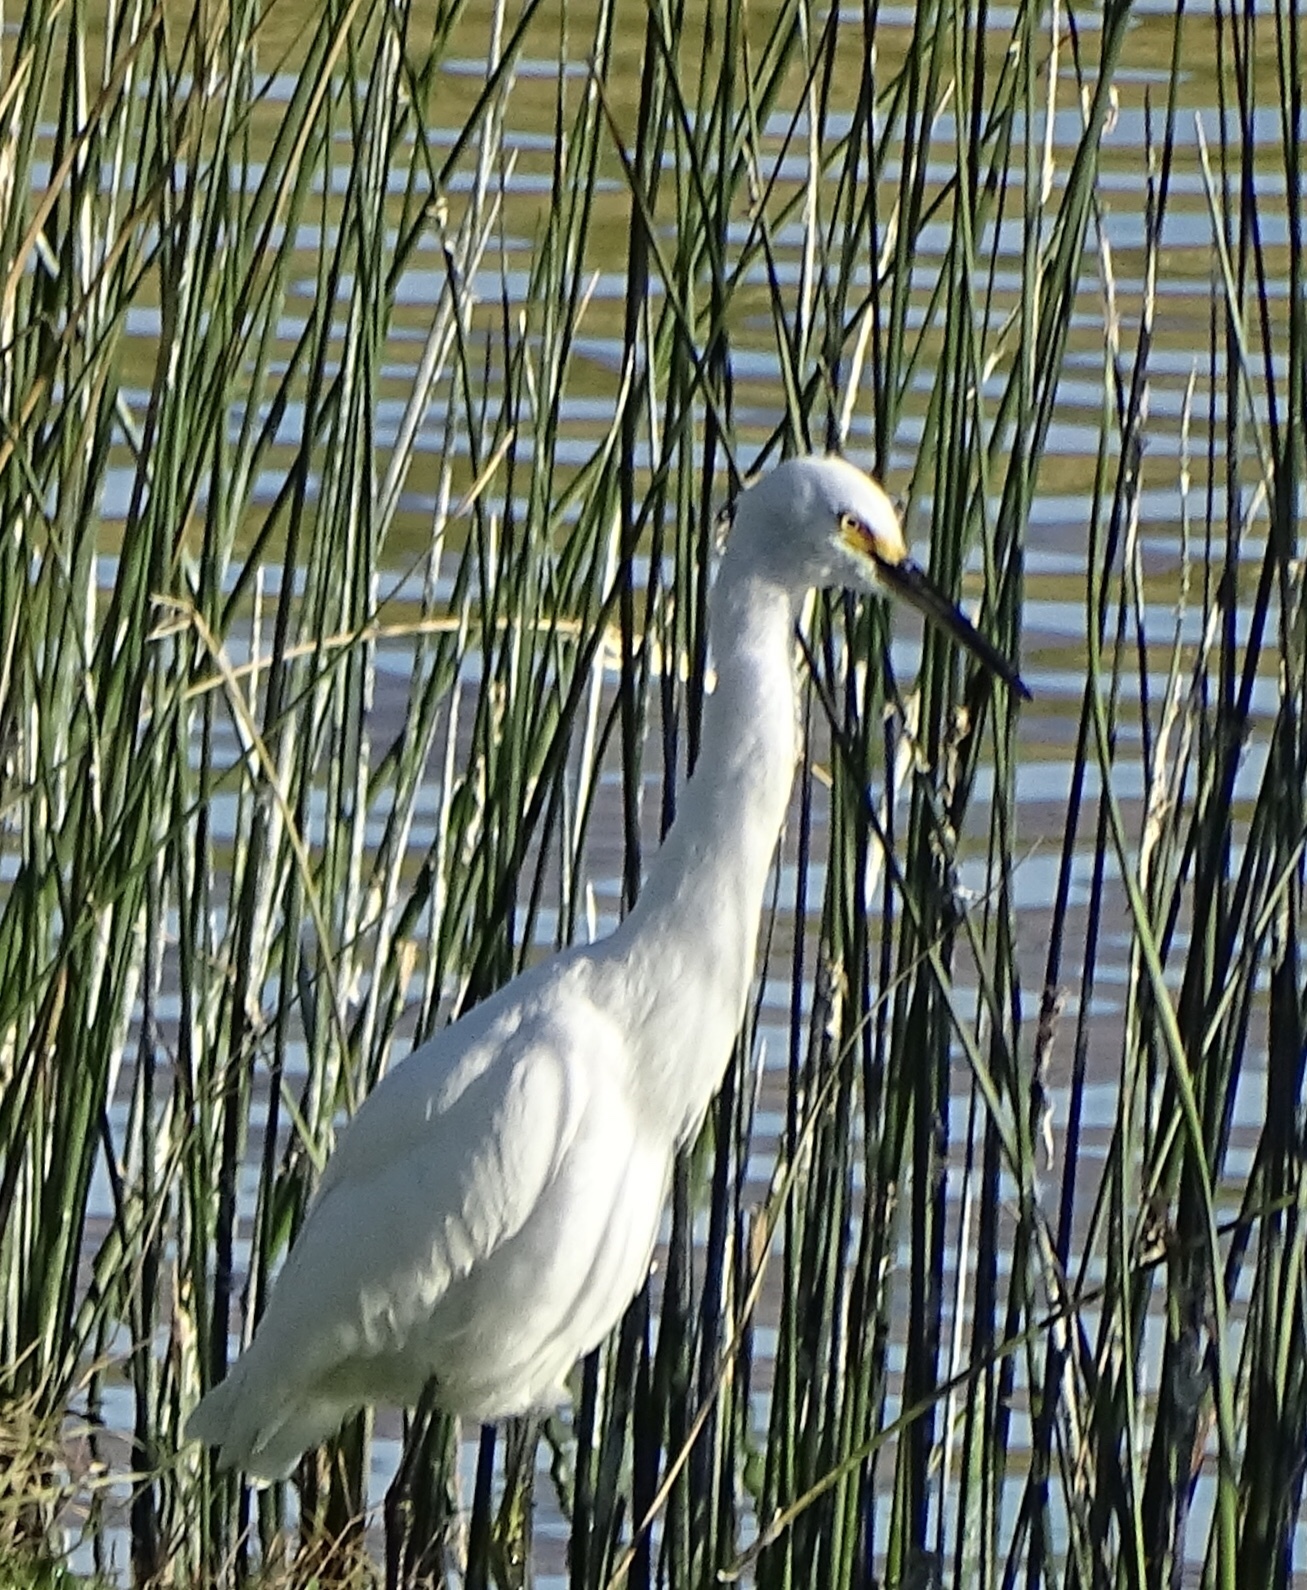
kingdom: Animalia
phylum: Chordata
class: Aves
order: Pelecaniformes
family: Ardeidae
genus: Egretta
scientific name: Egretta thula
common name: Snowy egret
